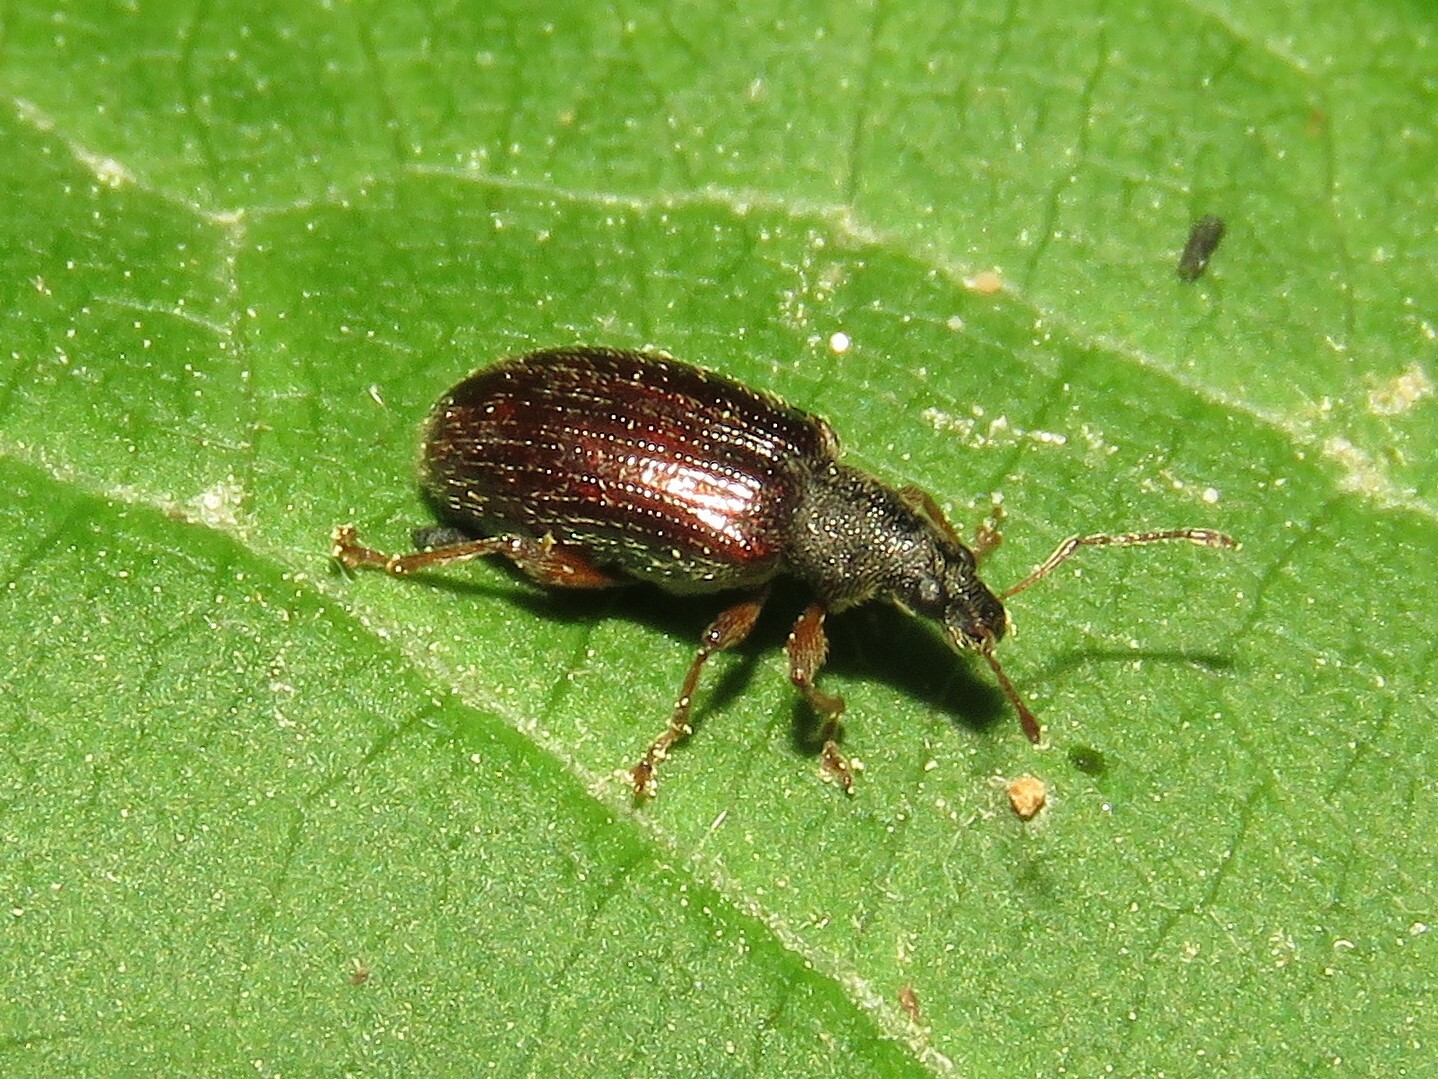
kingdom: Animalia
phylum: Arthropoda
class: Insecta
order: Coleoptera
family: Curculionidae
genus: Phyllobius
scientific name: Phyllobius oblongus
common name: Brown leaf weevil
